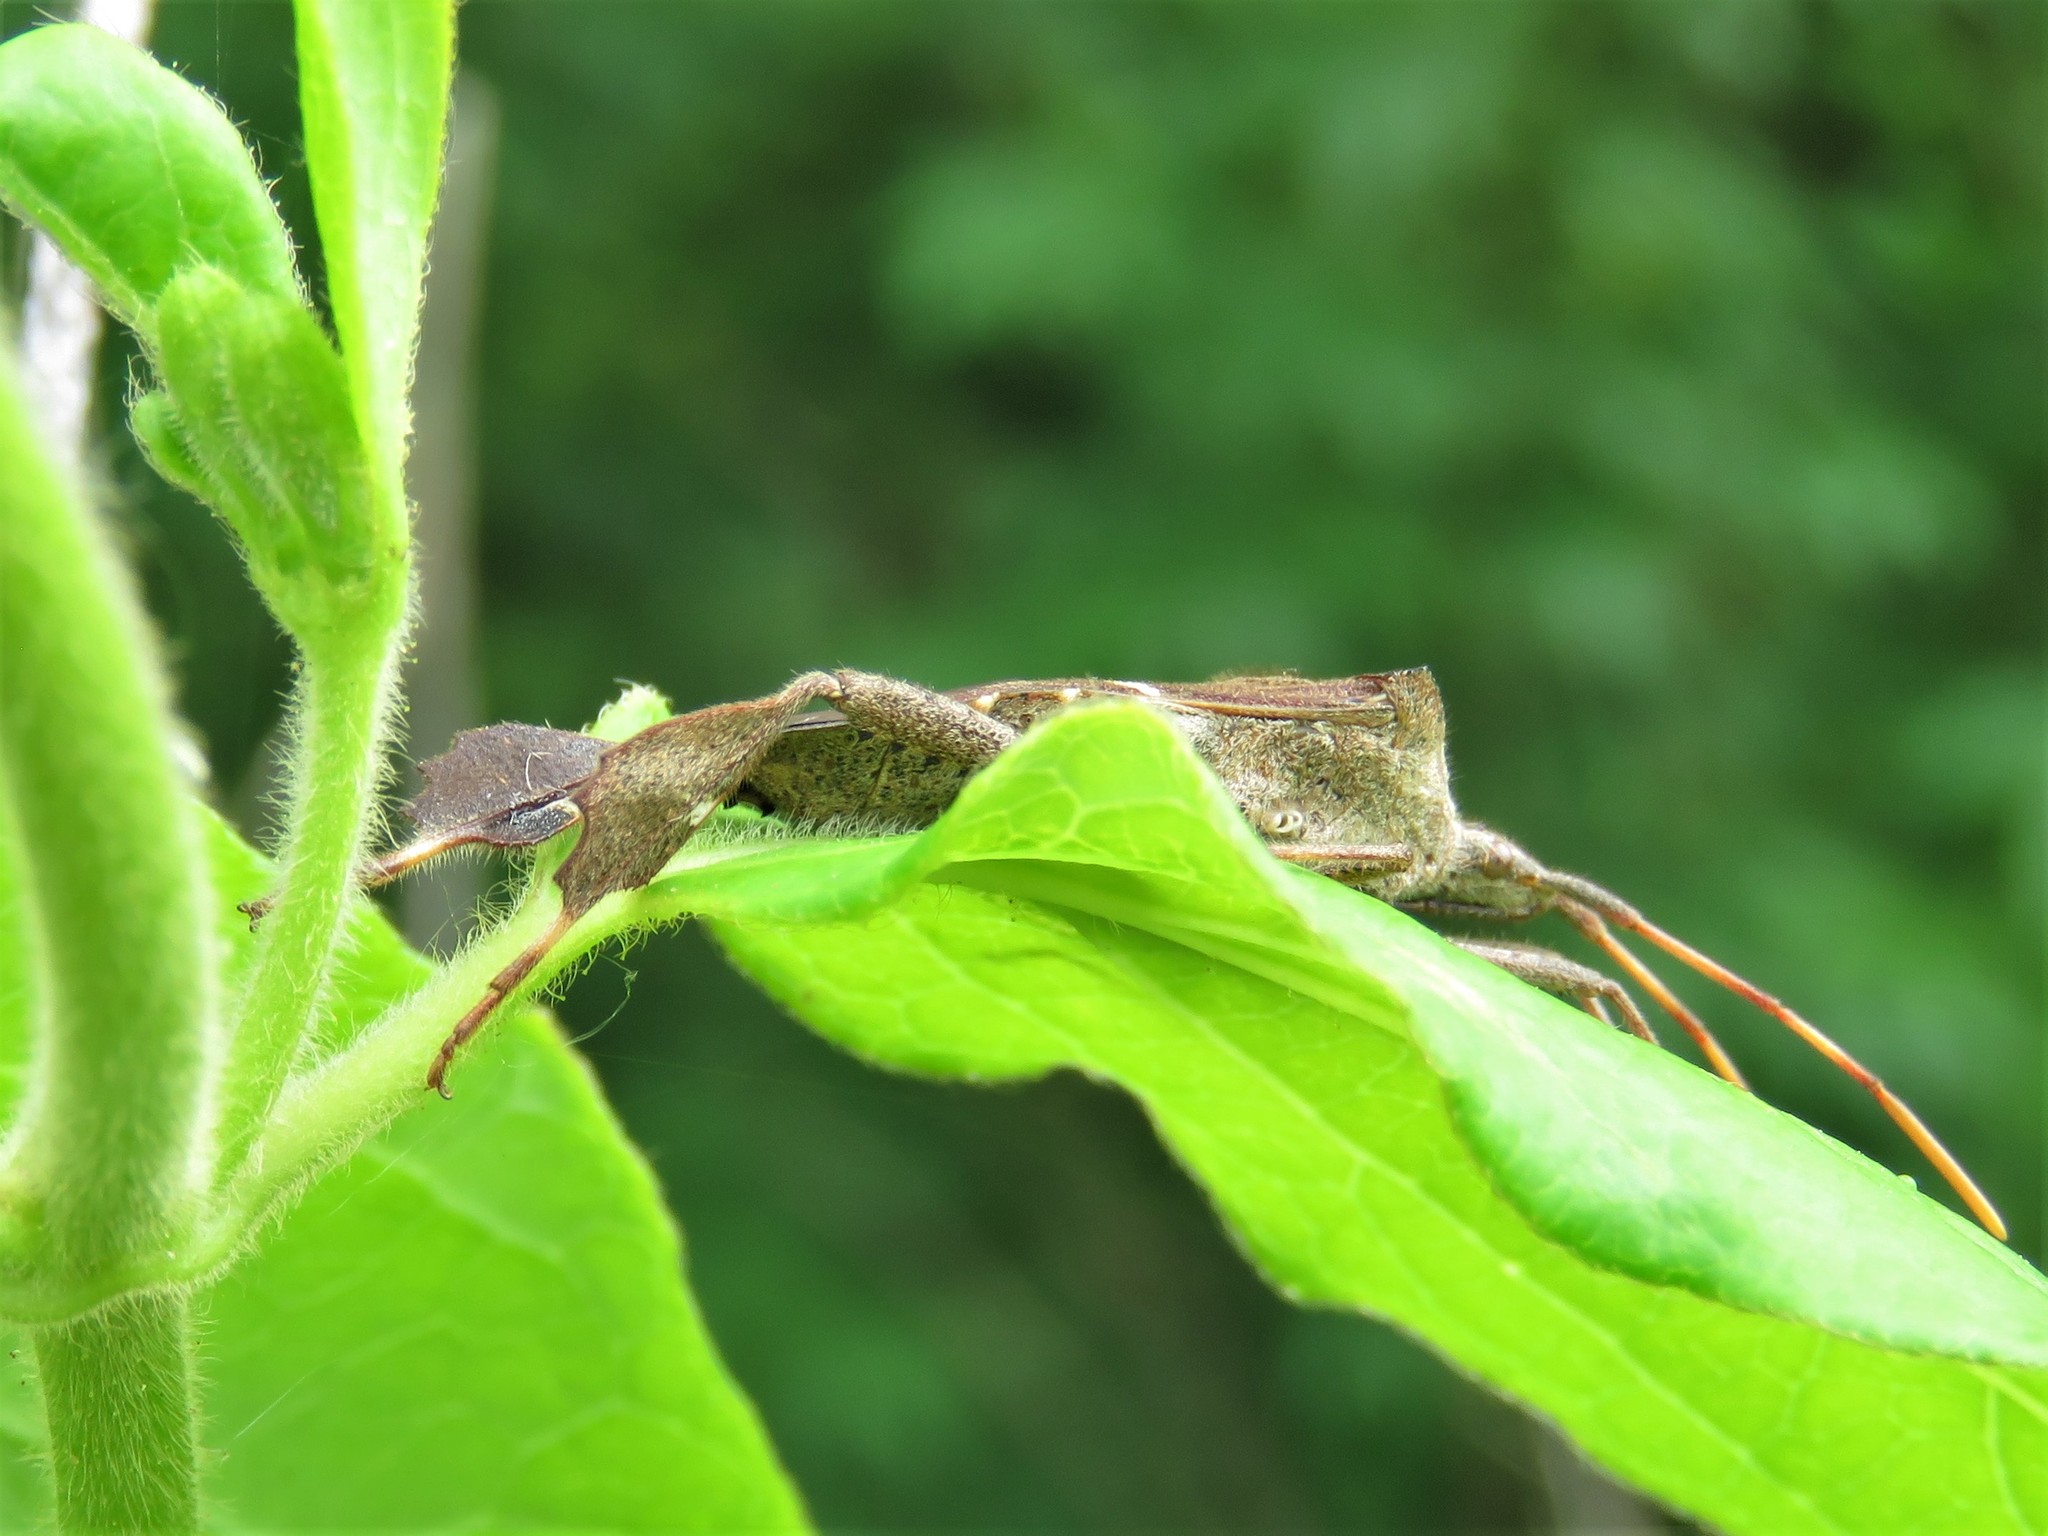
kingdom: Animalia
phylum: Arthropoda
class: Insecta
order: Hemiptera
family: Coreidae
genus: Leptoglossus
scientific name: Leptoglossus phyllopus
